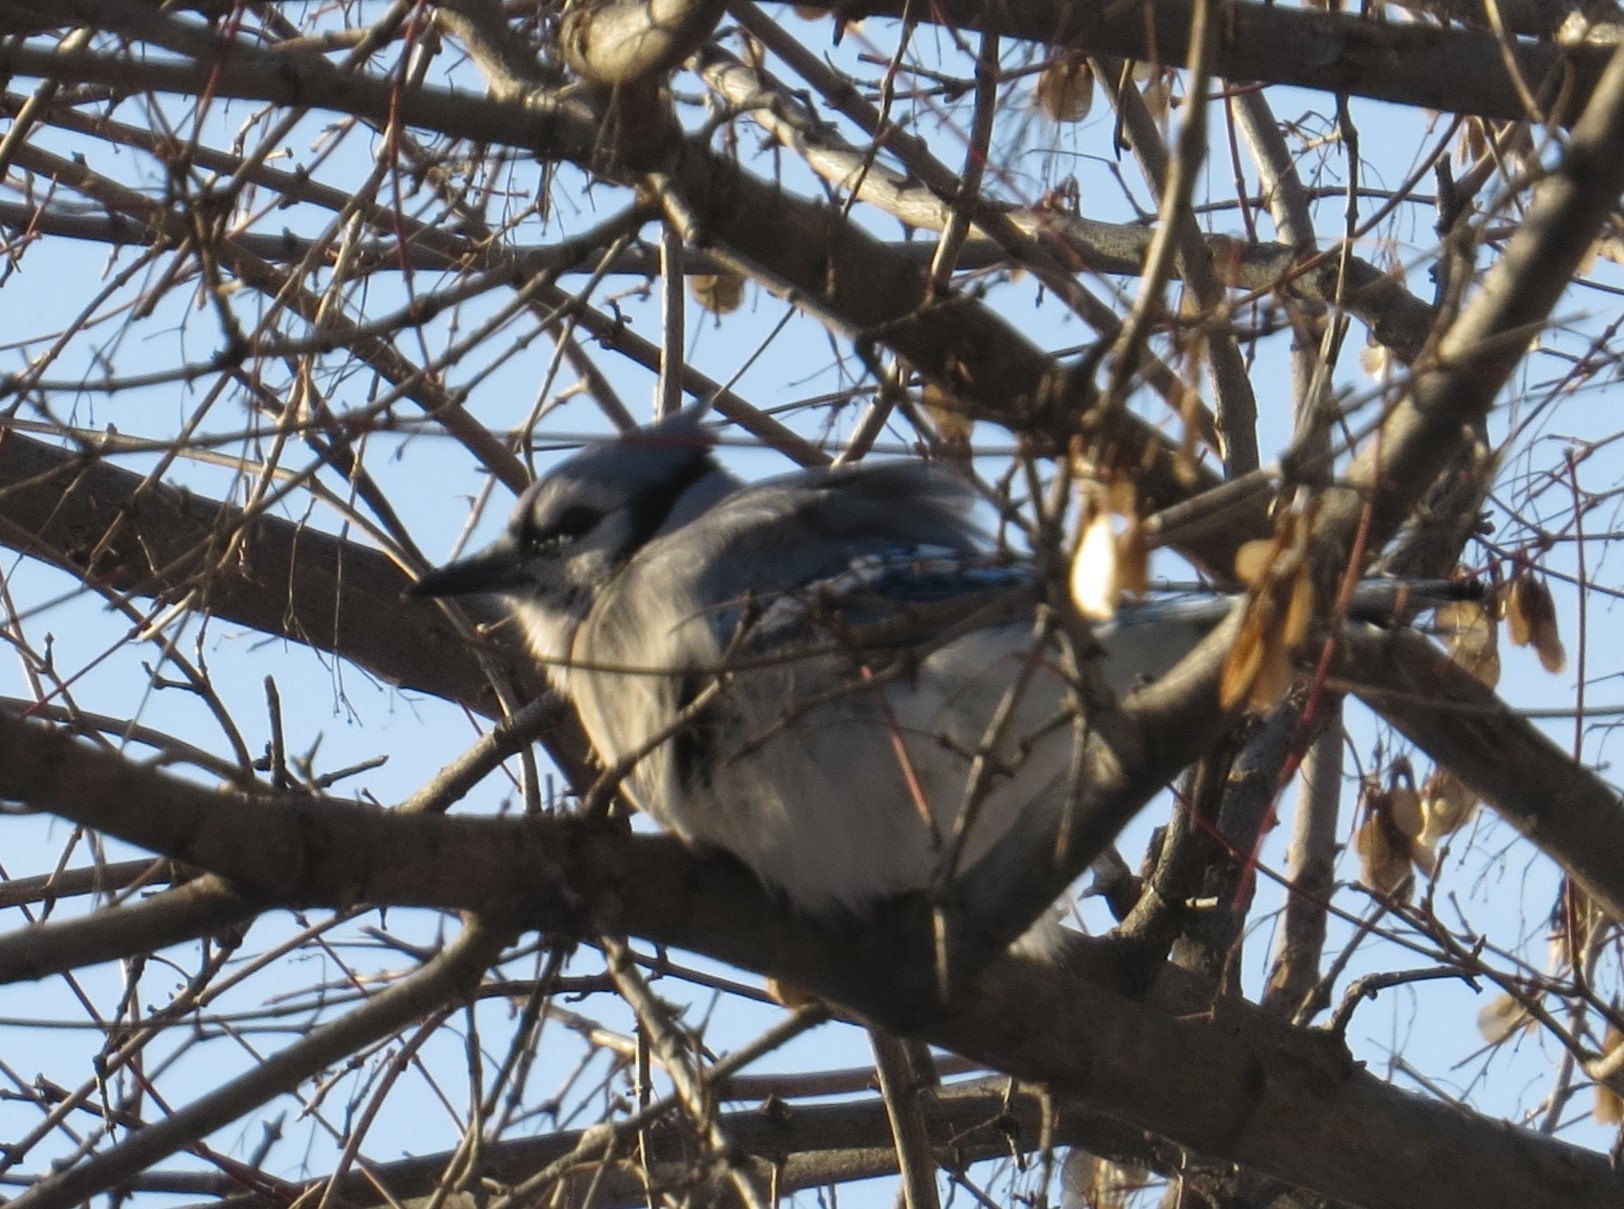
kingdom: Animalia
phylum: Chordata
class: Aves
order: Passeriformes
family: Corvidae
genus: Cyanocitta
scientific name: Cyanocitta cristata
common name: Blue jay
